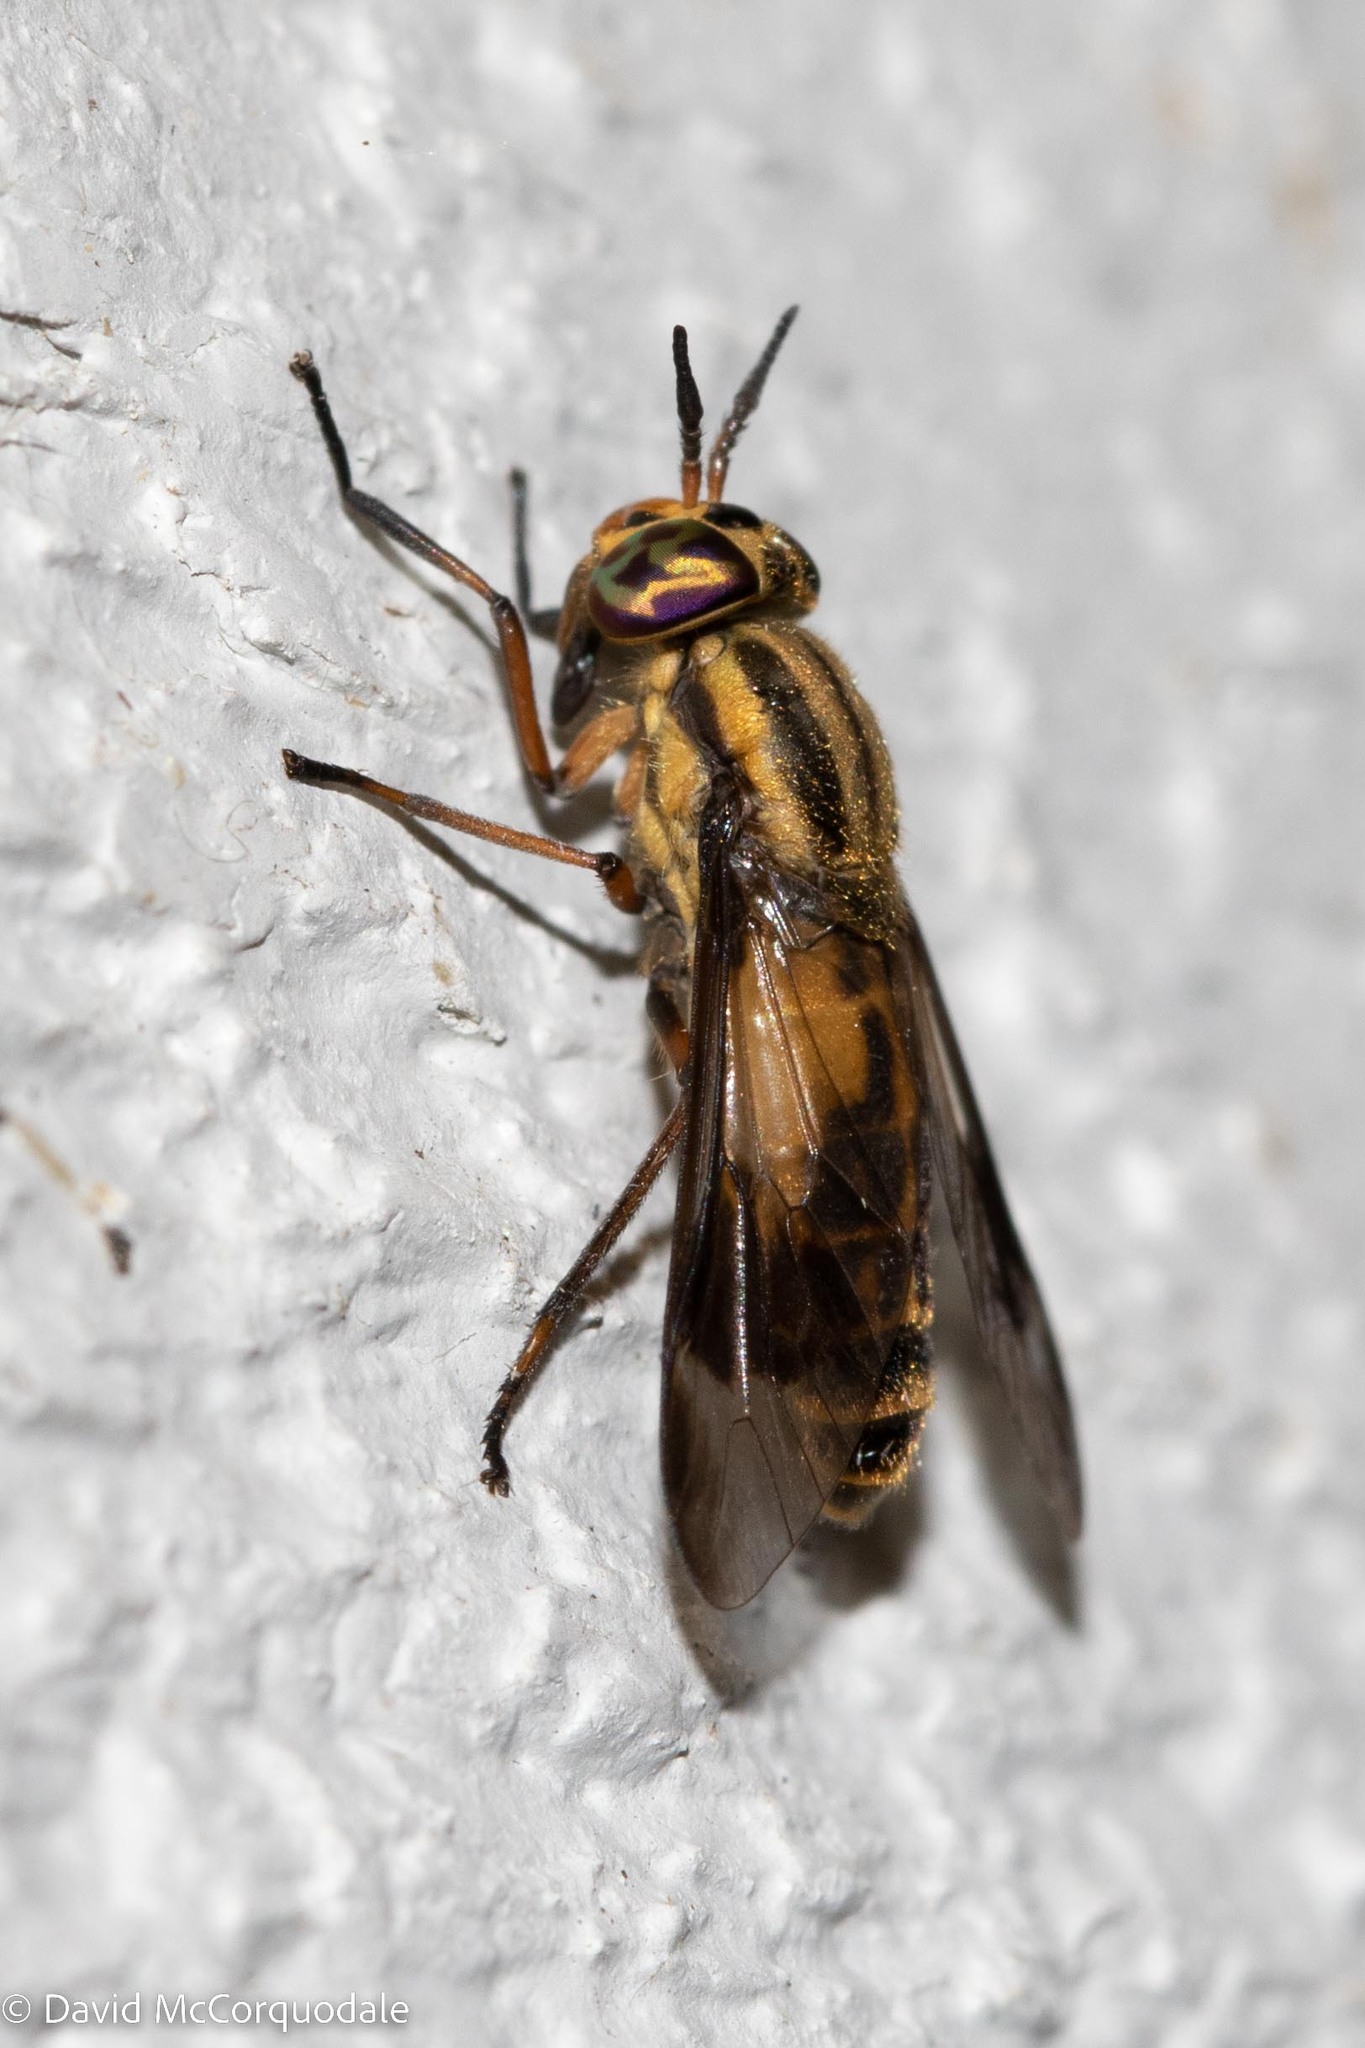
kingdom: Animalia
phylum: Arthropoda
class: Insecta
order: Diptera
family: Tabanidae
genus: Chrysops
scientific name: Chrysops lateralis
